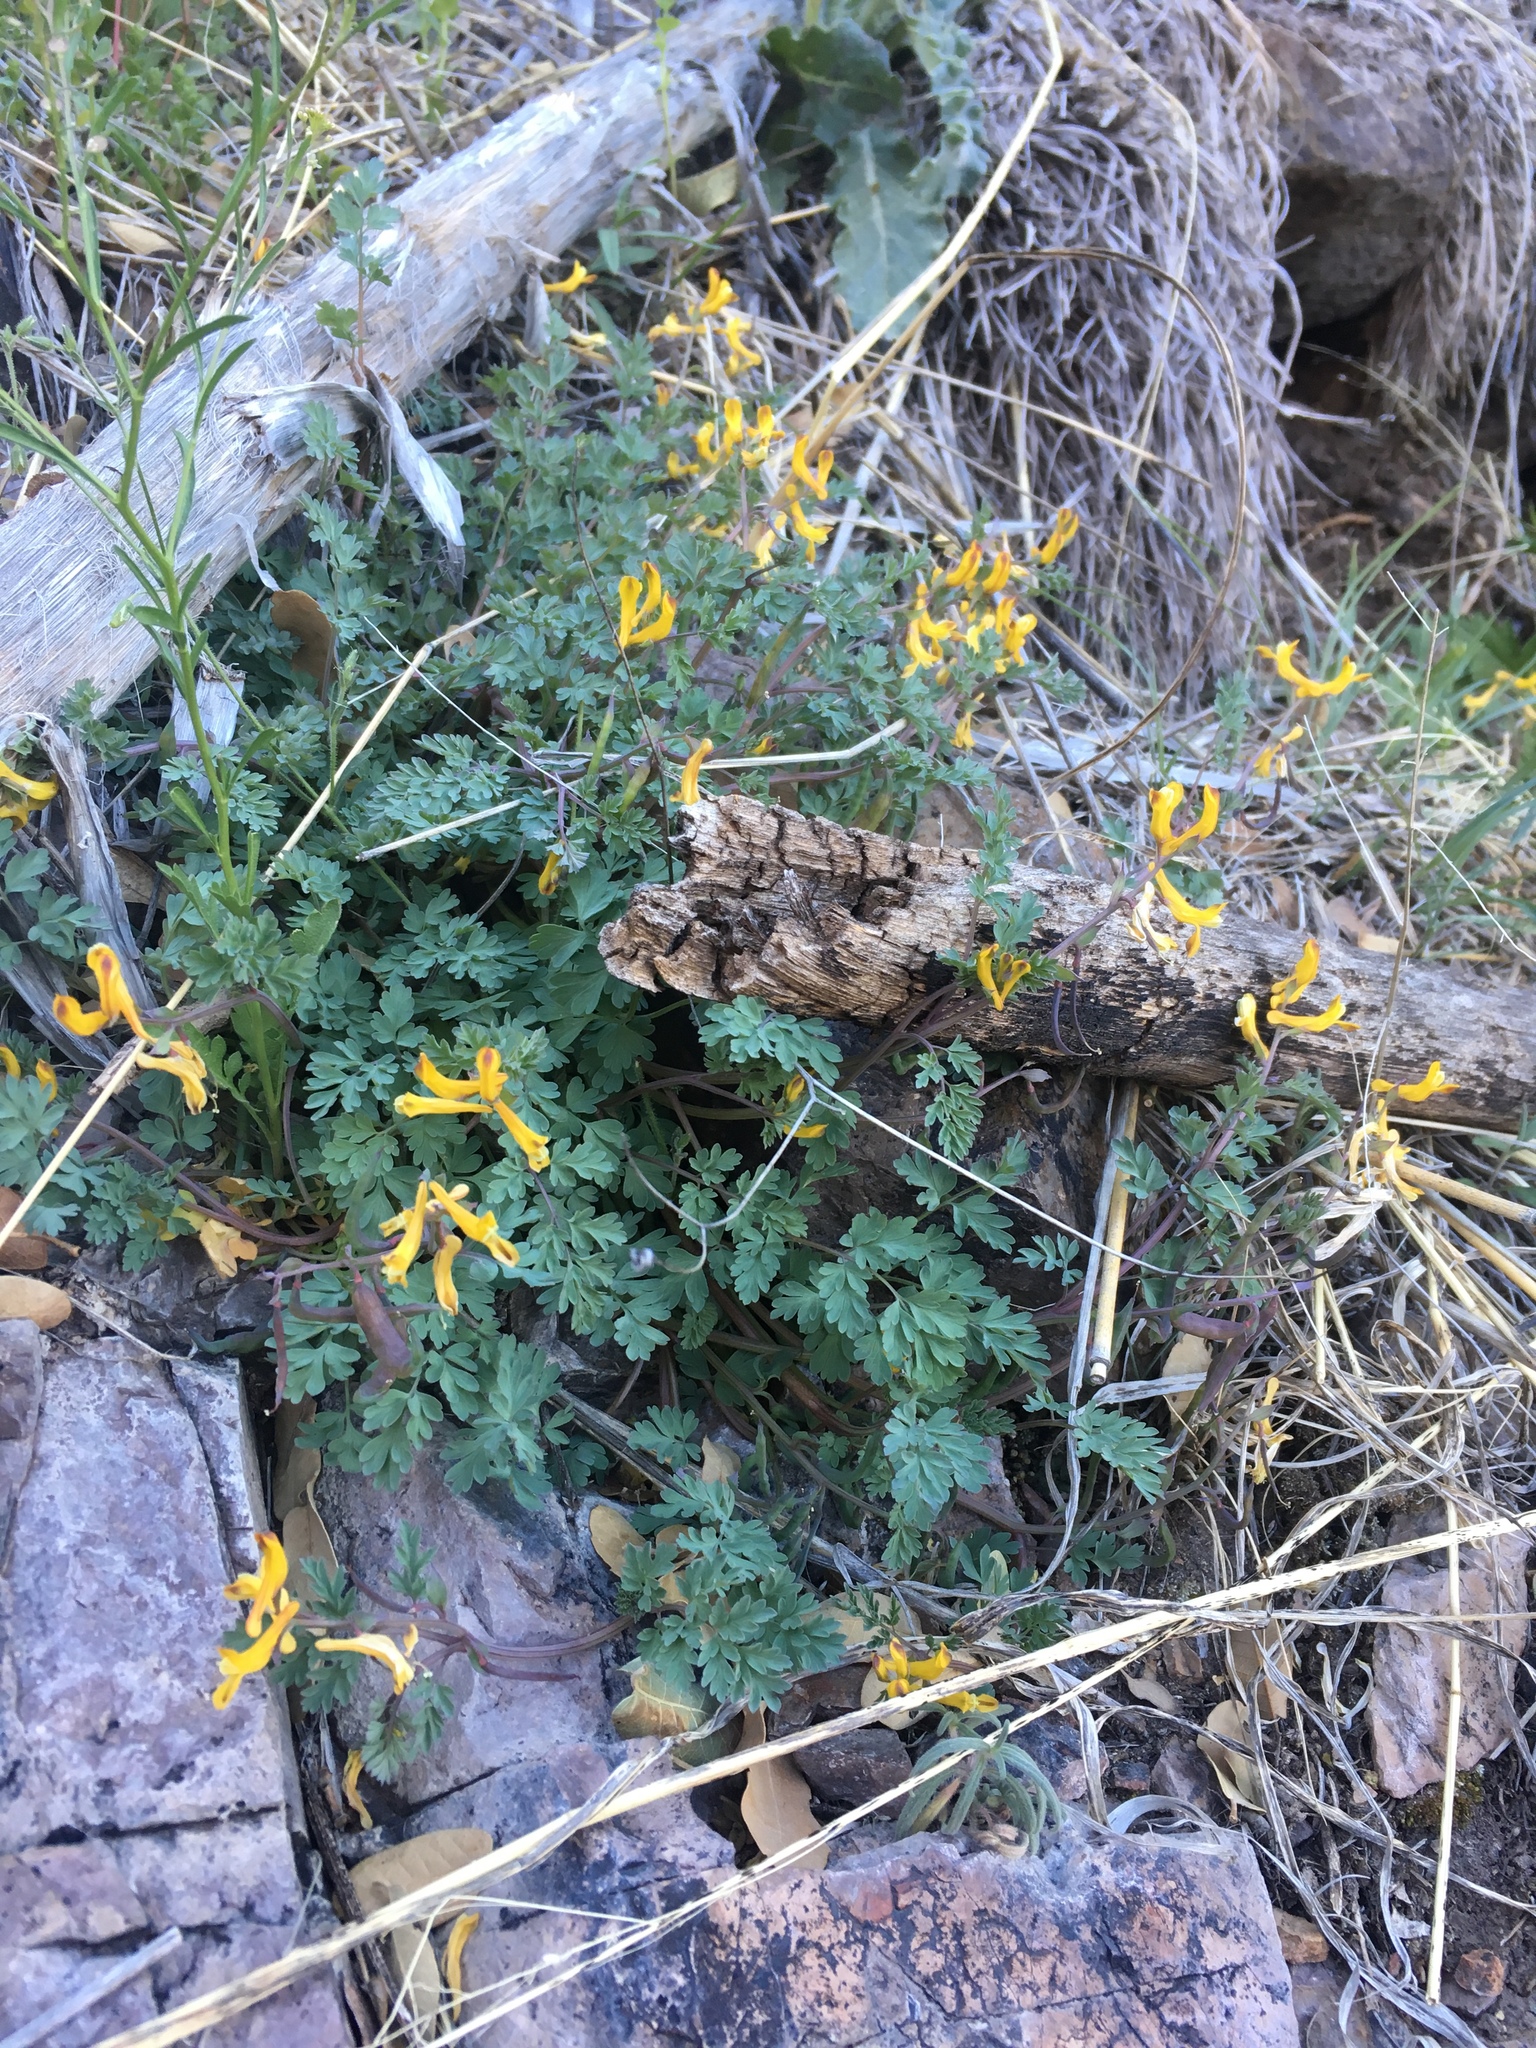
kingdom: Plantae
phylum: Tracheophyta
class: Magnoliopsida
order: Ranunculales
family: Papaveraceae
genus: Corydalis
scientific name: Corydalis aurea
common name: Golden corydalis
